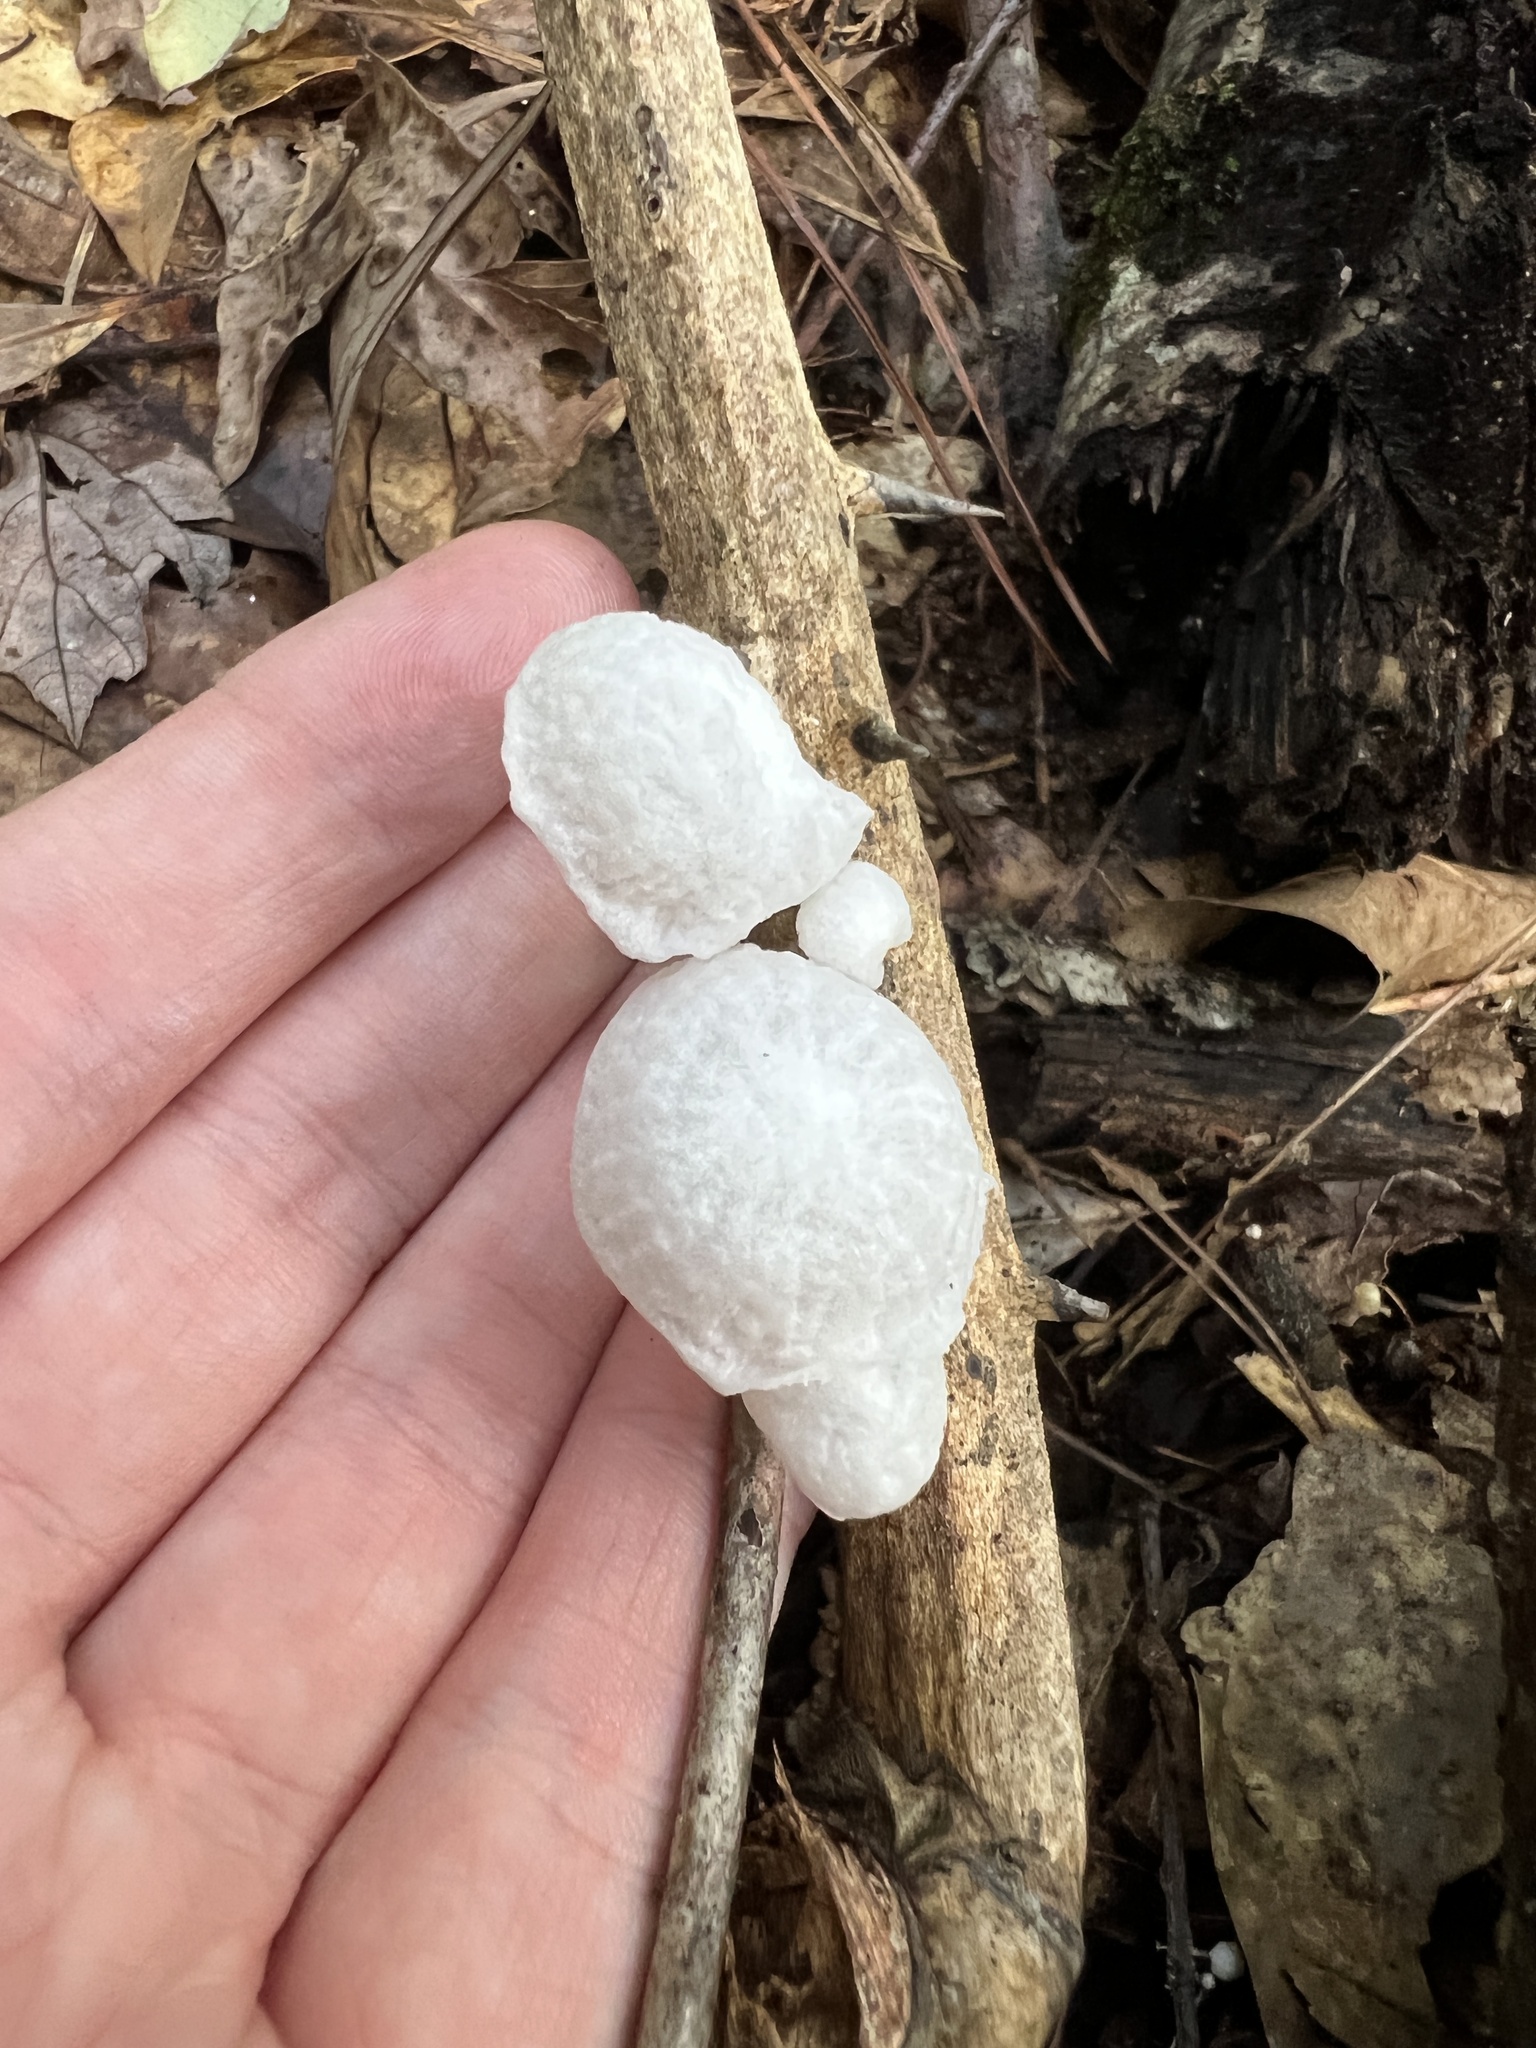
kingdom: Fungi
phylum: Basidiomycota
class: Agaricomycetes
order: Agaricales
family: Marasmiaceae
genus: Tetrapyrgos
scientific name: Tetrapyrgos nigripes
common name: Black-stalked marasmius
